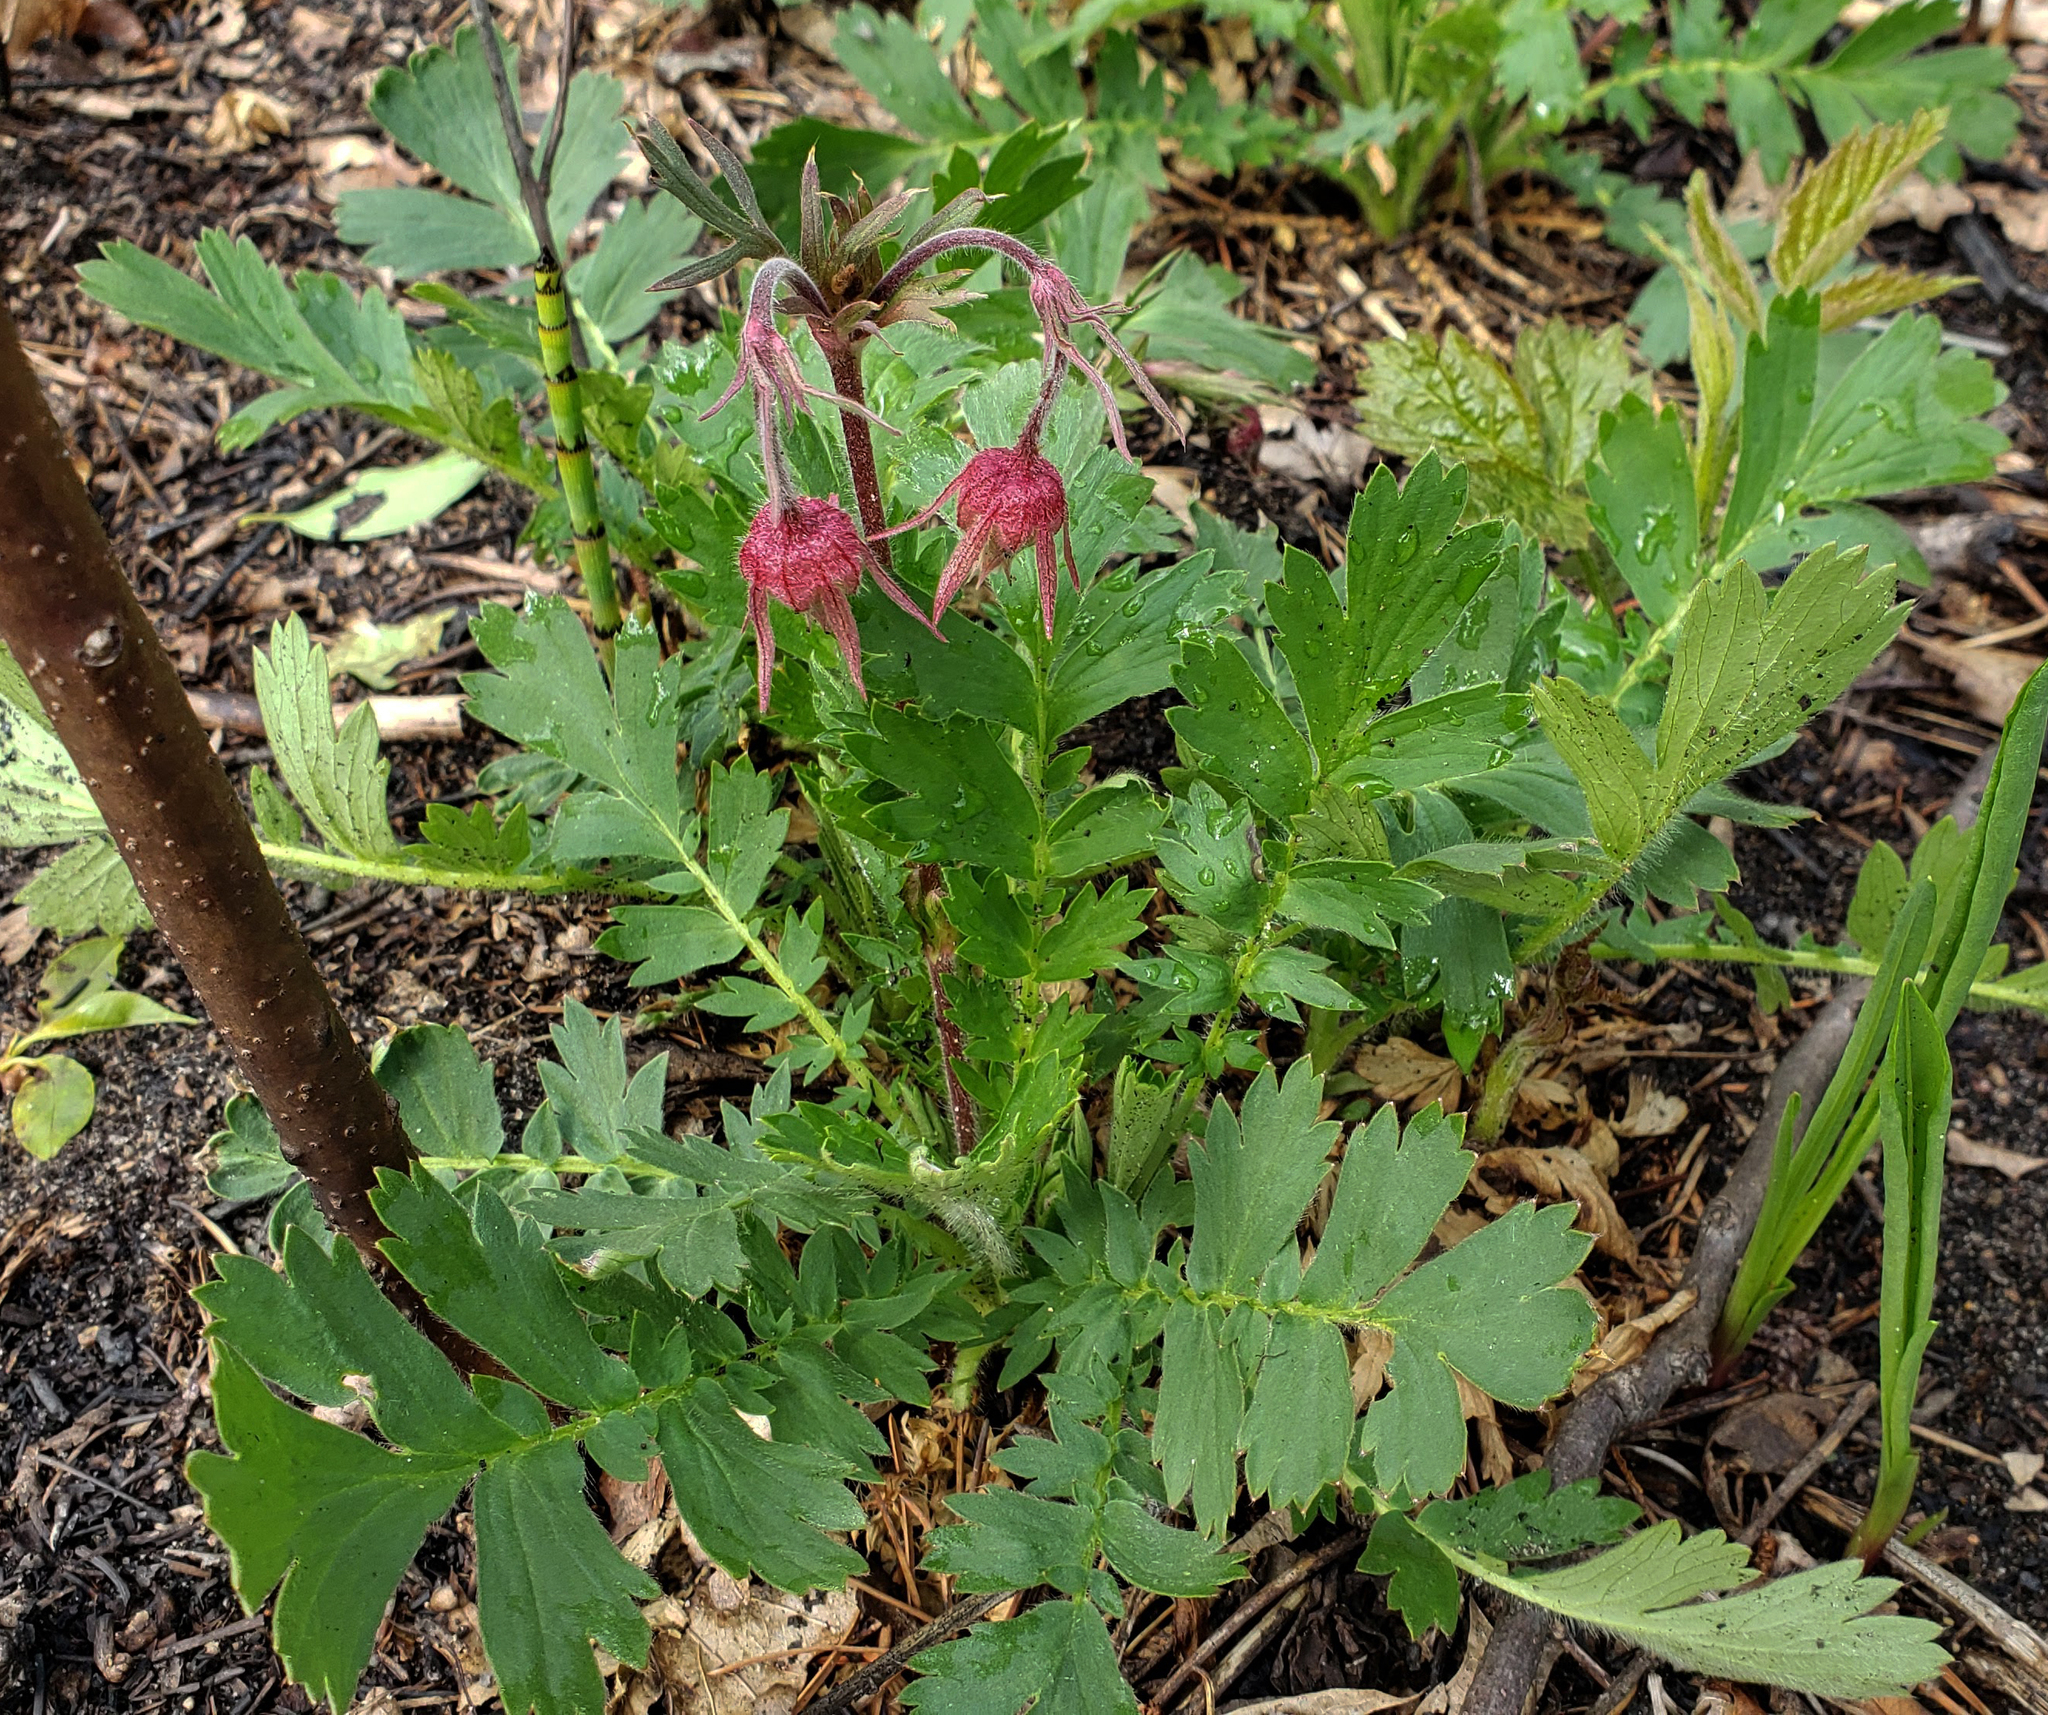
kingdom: Plantae
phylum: Tracheophyta
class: Magnoliopsida
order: Rosales
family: Rosaceae
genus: Geum
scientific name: Geum triflorum
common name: Old man's whiskers
